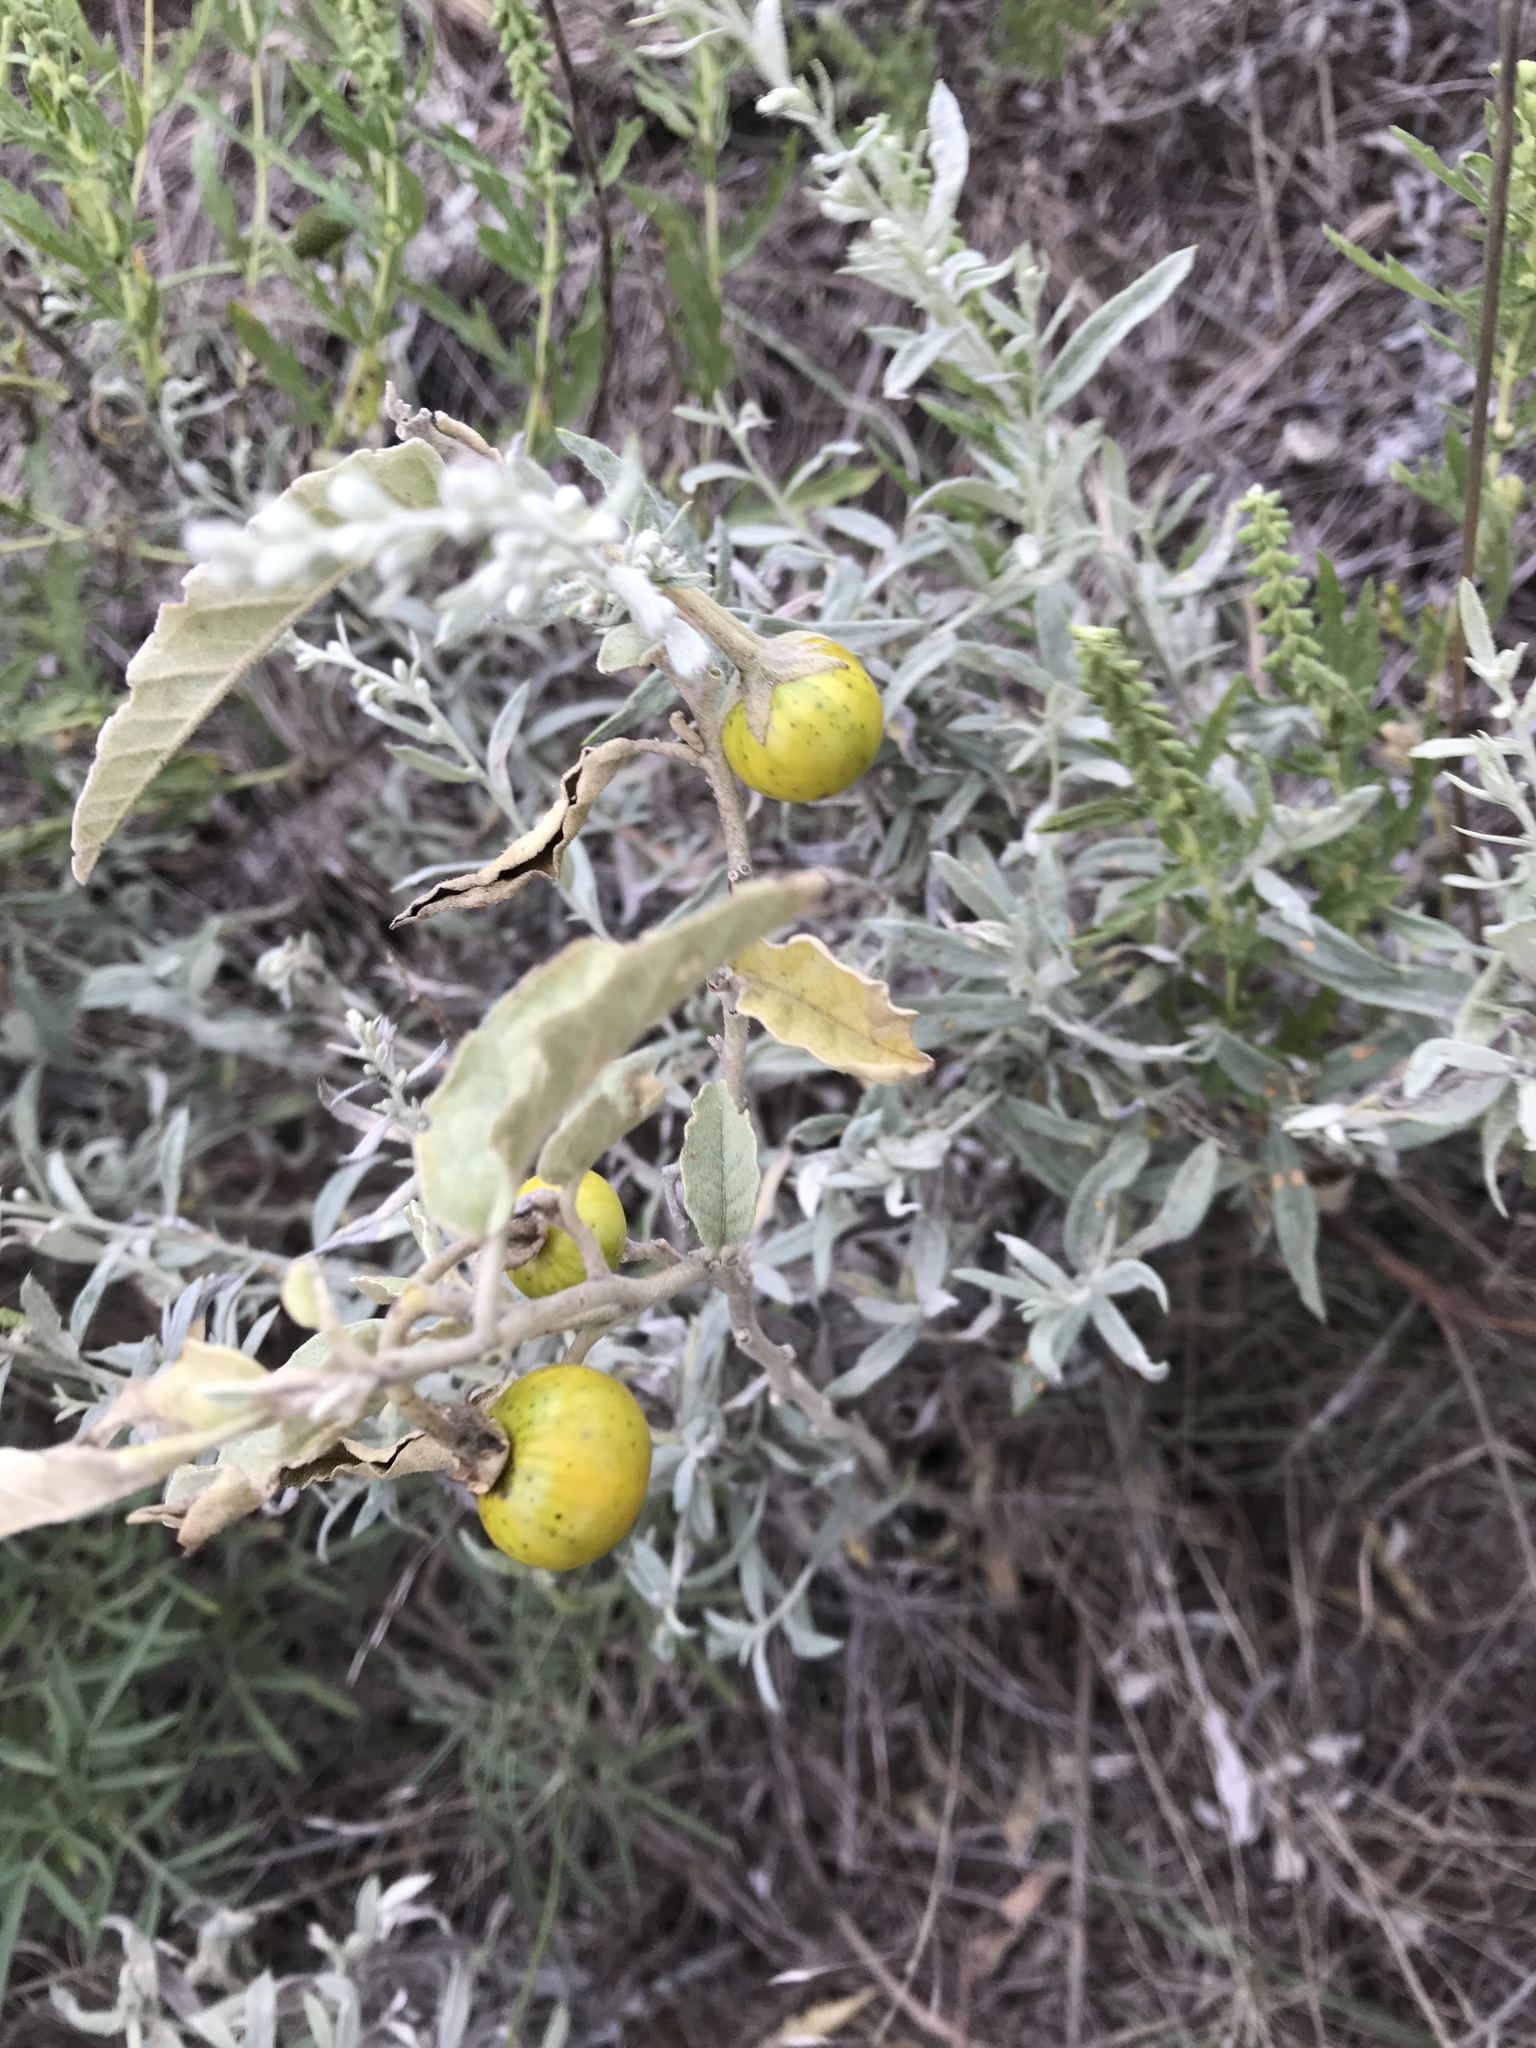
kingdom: Plantae
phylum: Tracheophyta
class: Magnoliopsida
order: Solanales
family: Solanaceae
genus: Solanum
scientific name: Solanum elaeagnifolium
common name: Silverleaf nightshade
